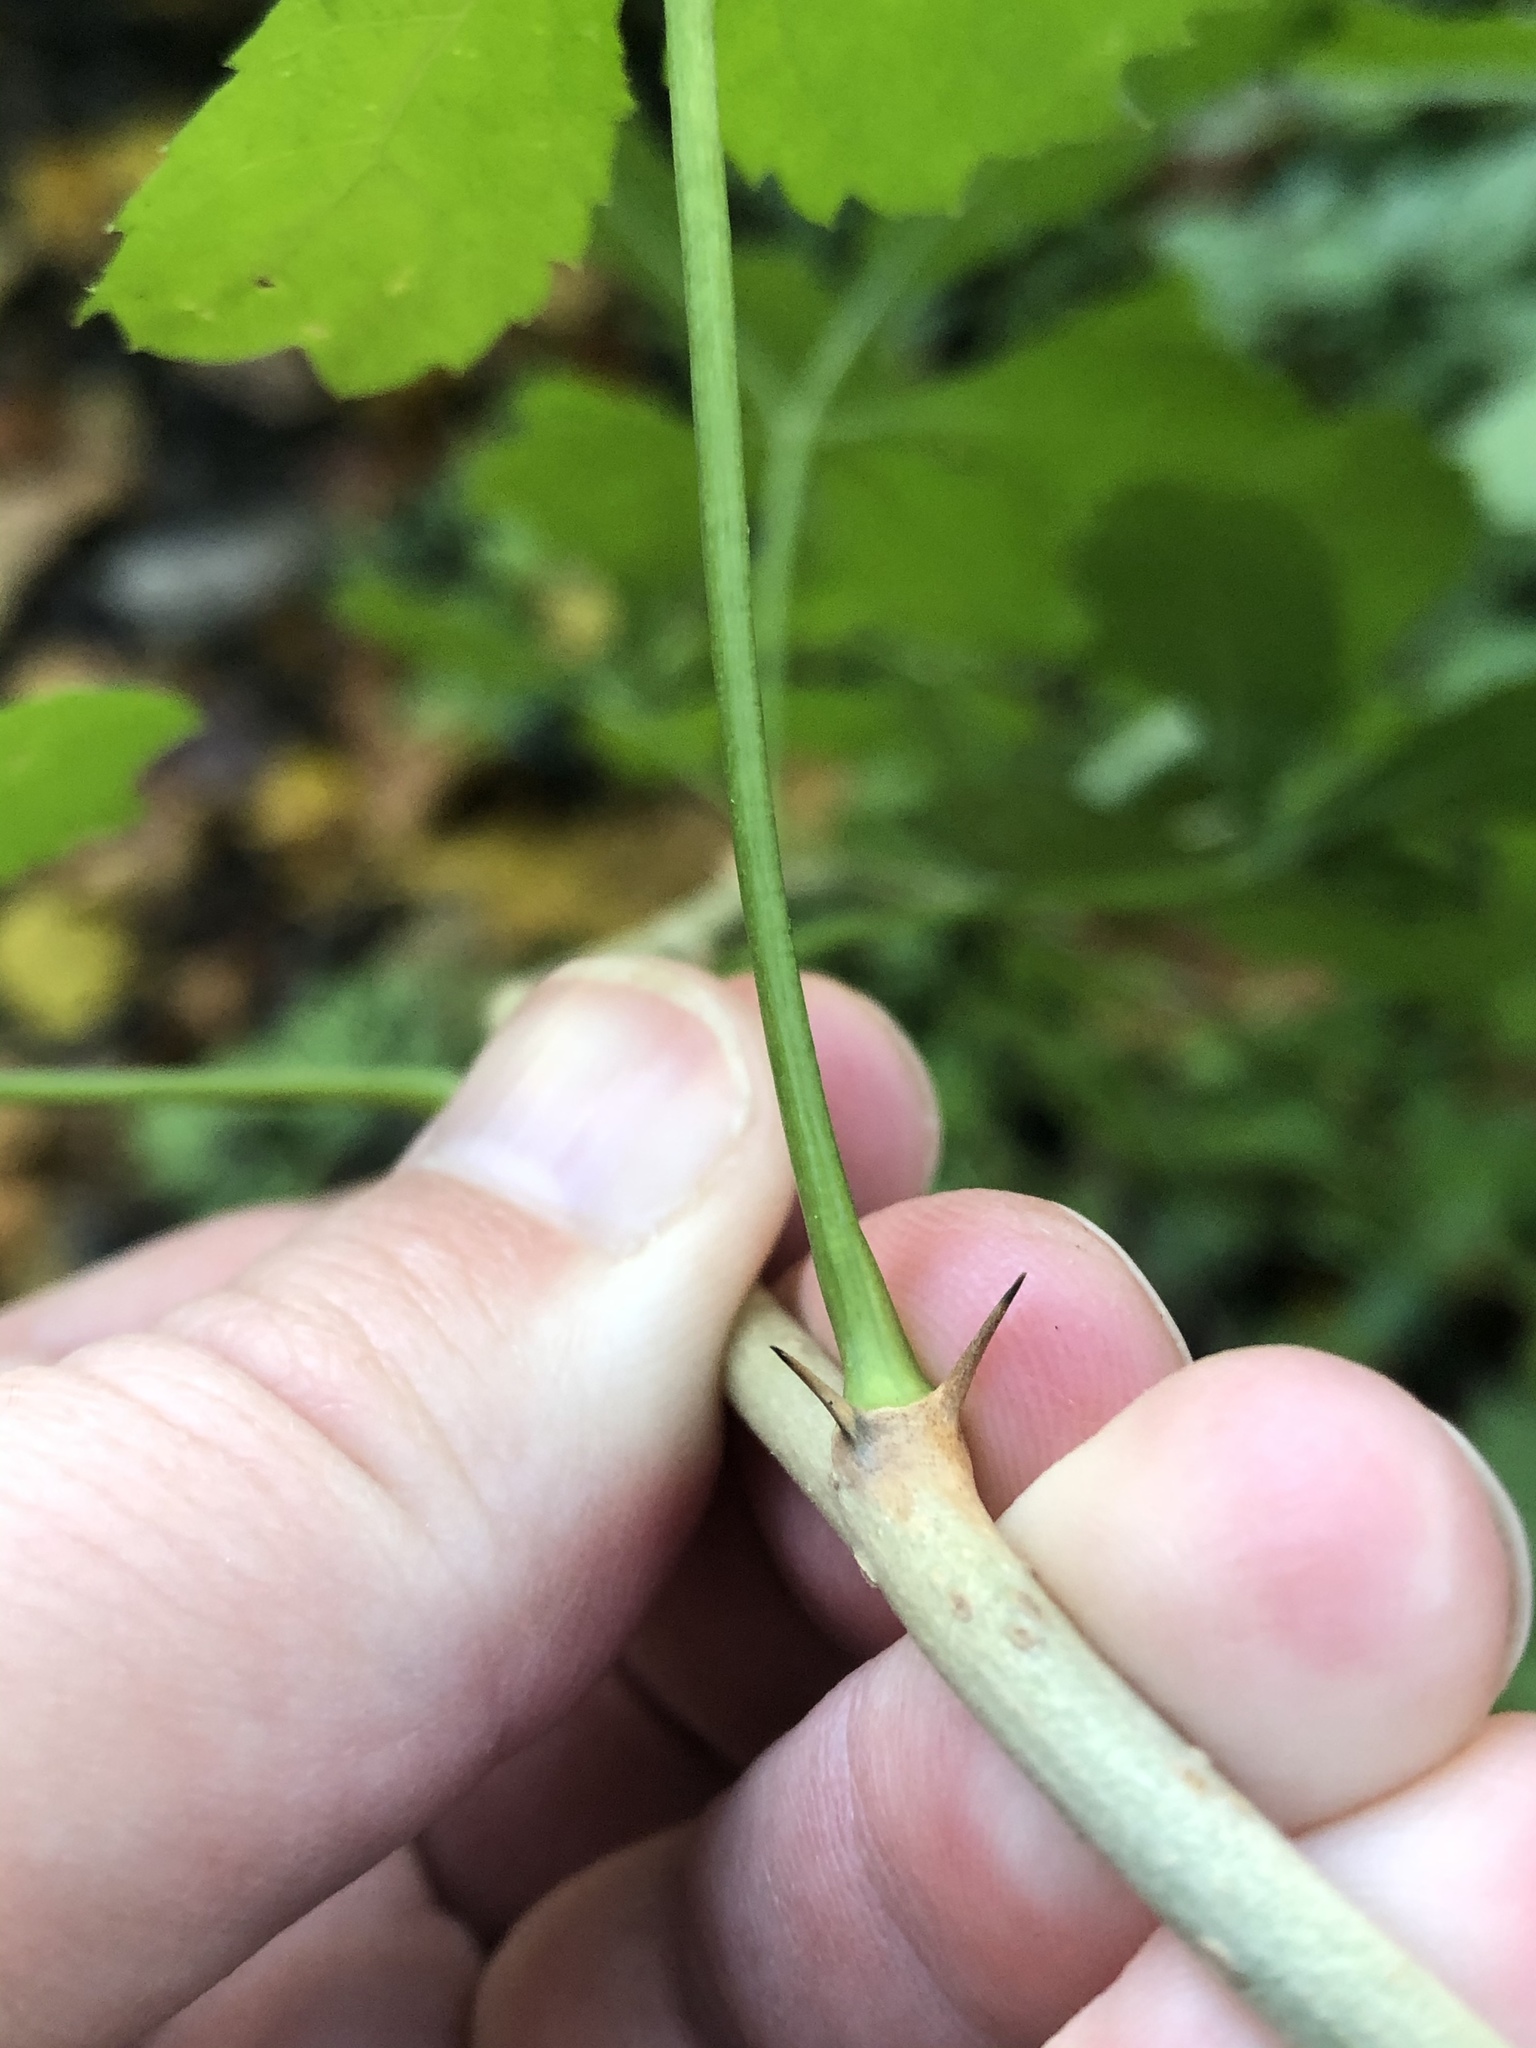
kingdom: Plantae
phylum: Tracheophyta
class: Magnoliopsida
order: Apiales
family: Araliaceae
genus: Eleutherococcus
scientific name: Eleutherococcus sieboldianus
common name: Ginseng
